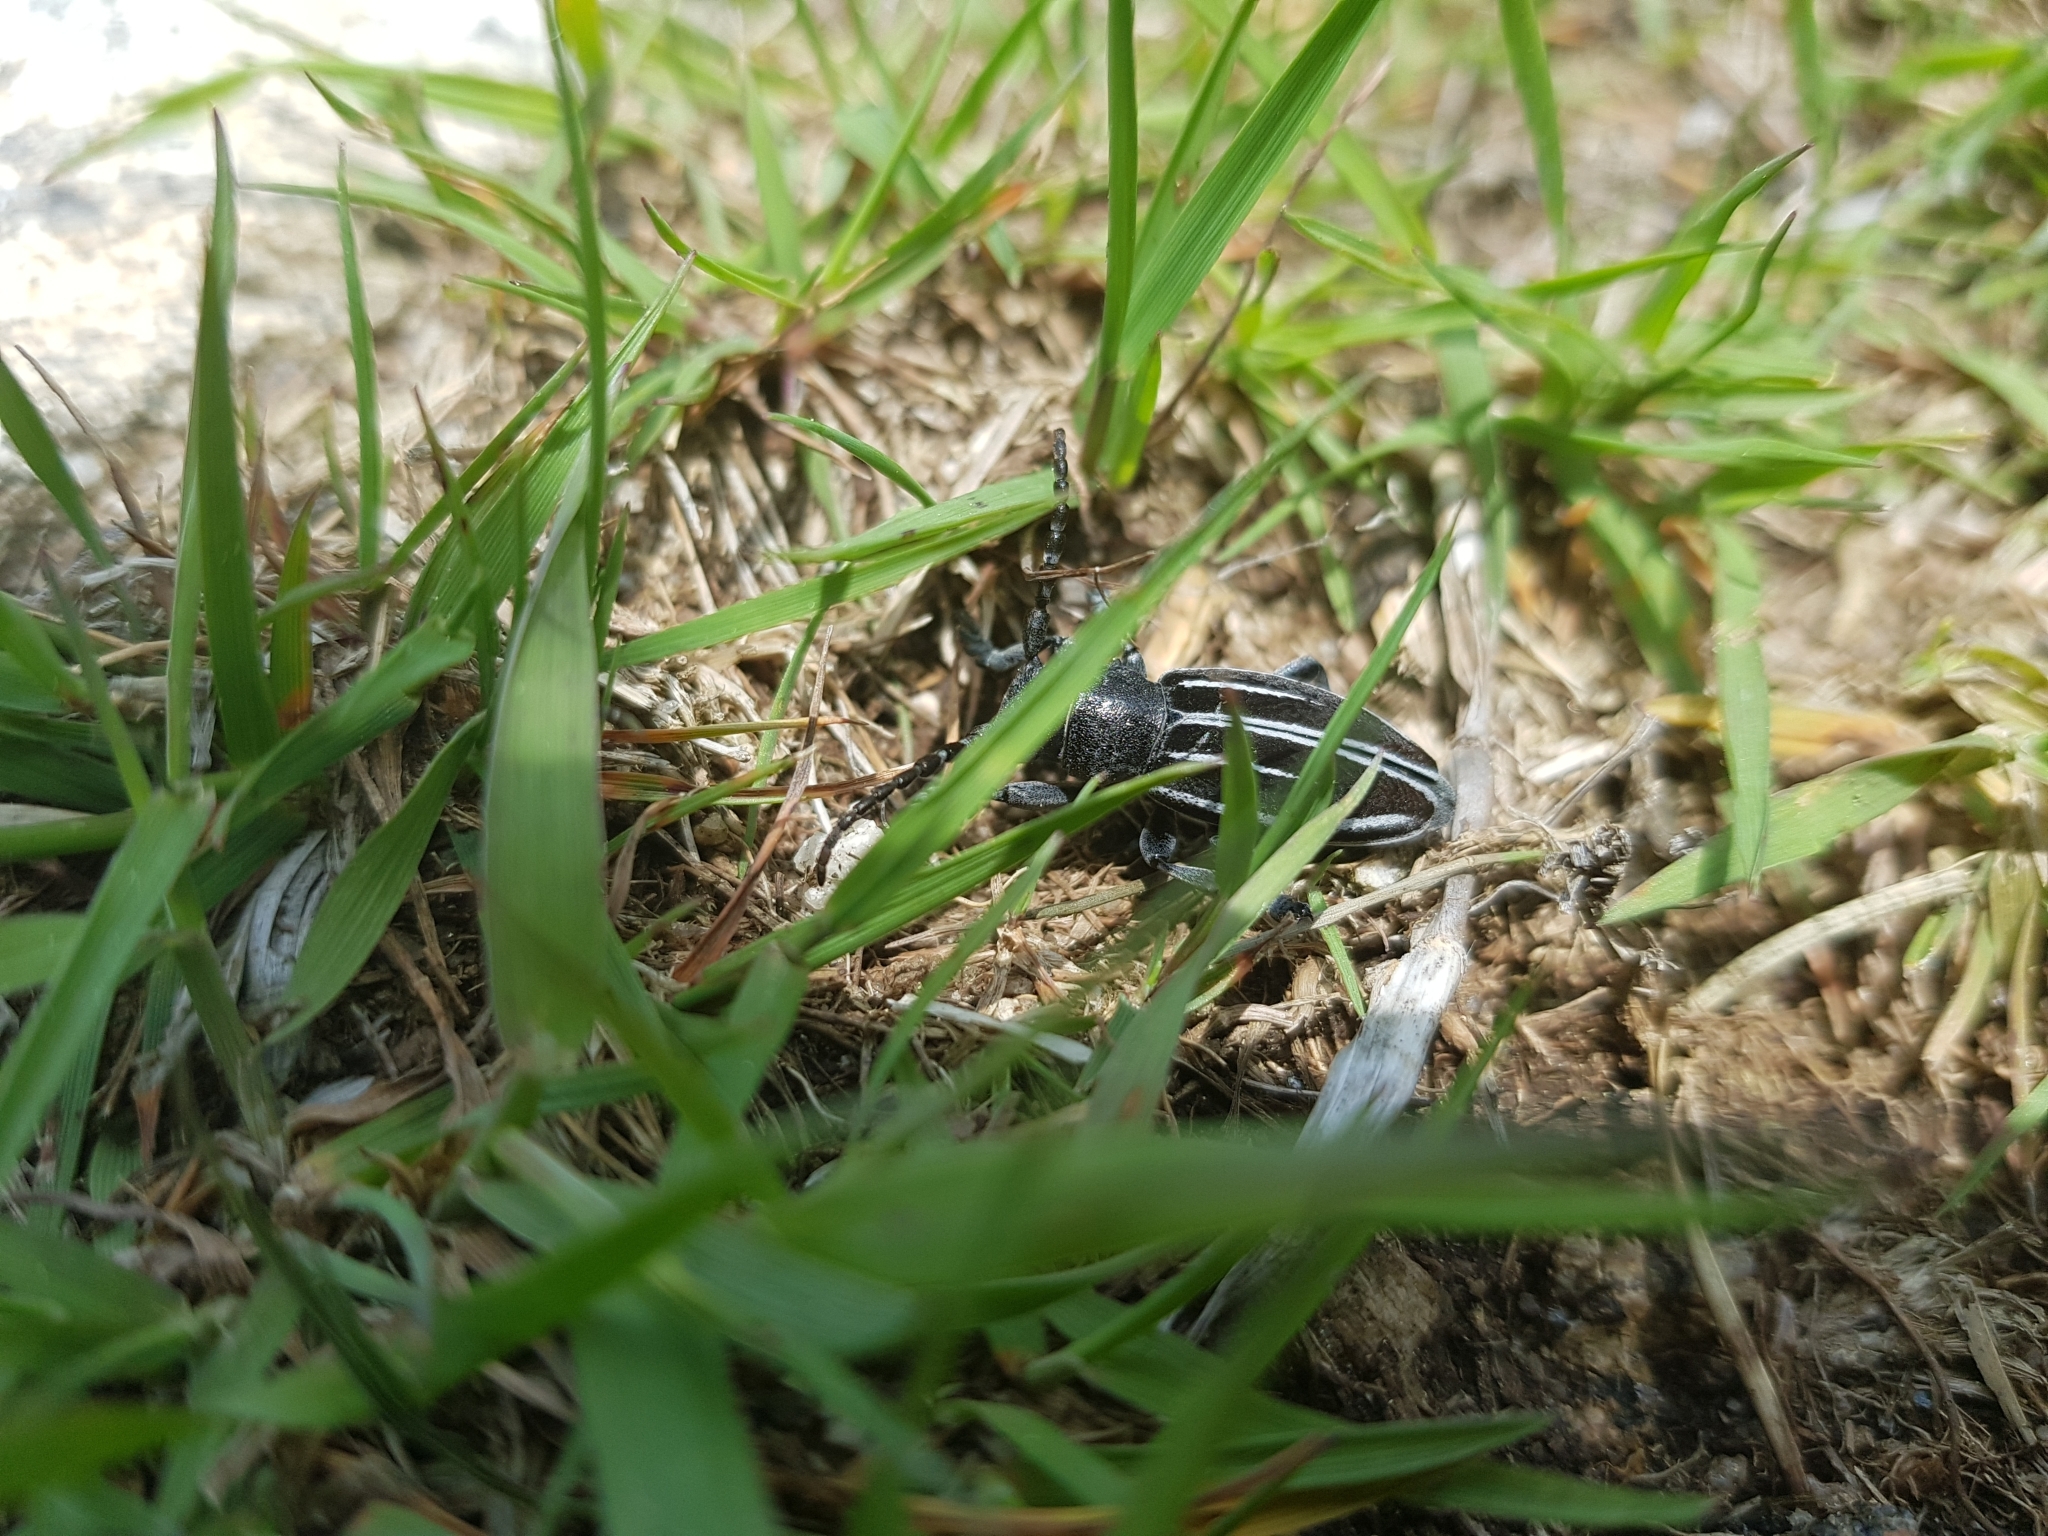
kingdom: Animalia
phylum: Arthropoda
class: Insecta
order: Coleoptera
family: Cerambycidae
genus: Iberodorcadion
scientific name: Iberodorcadion fuliginator
